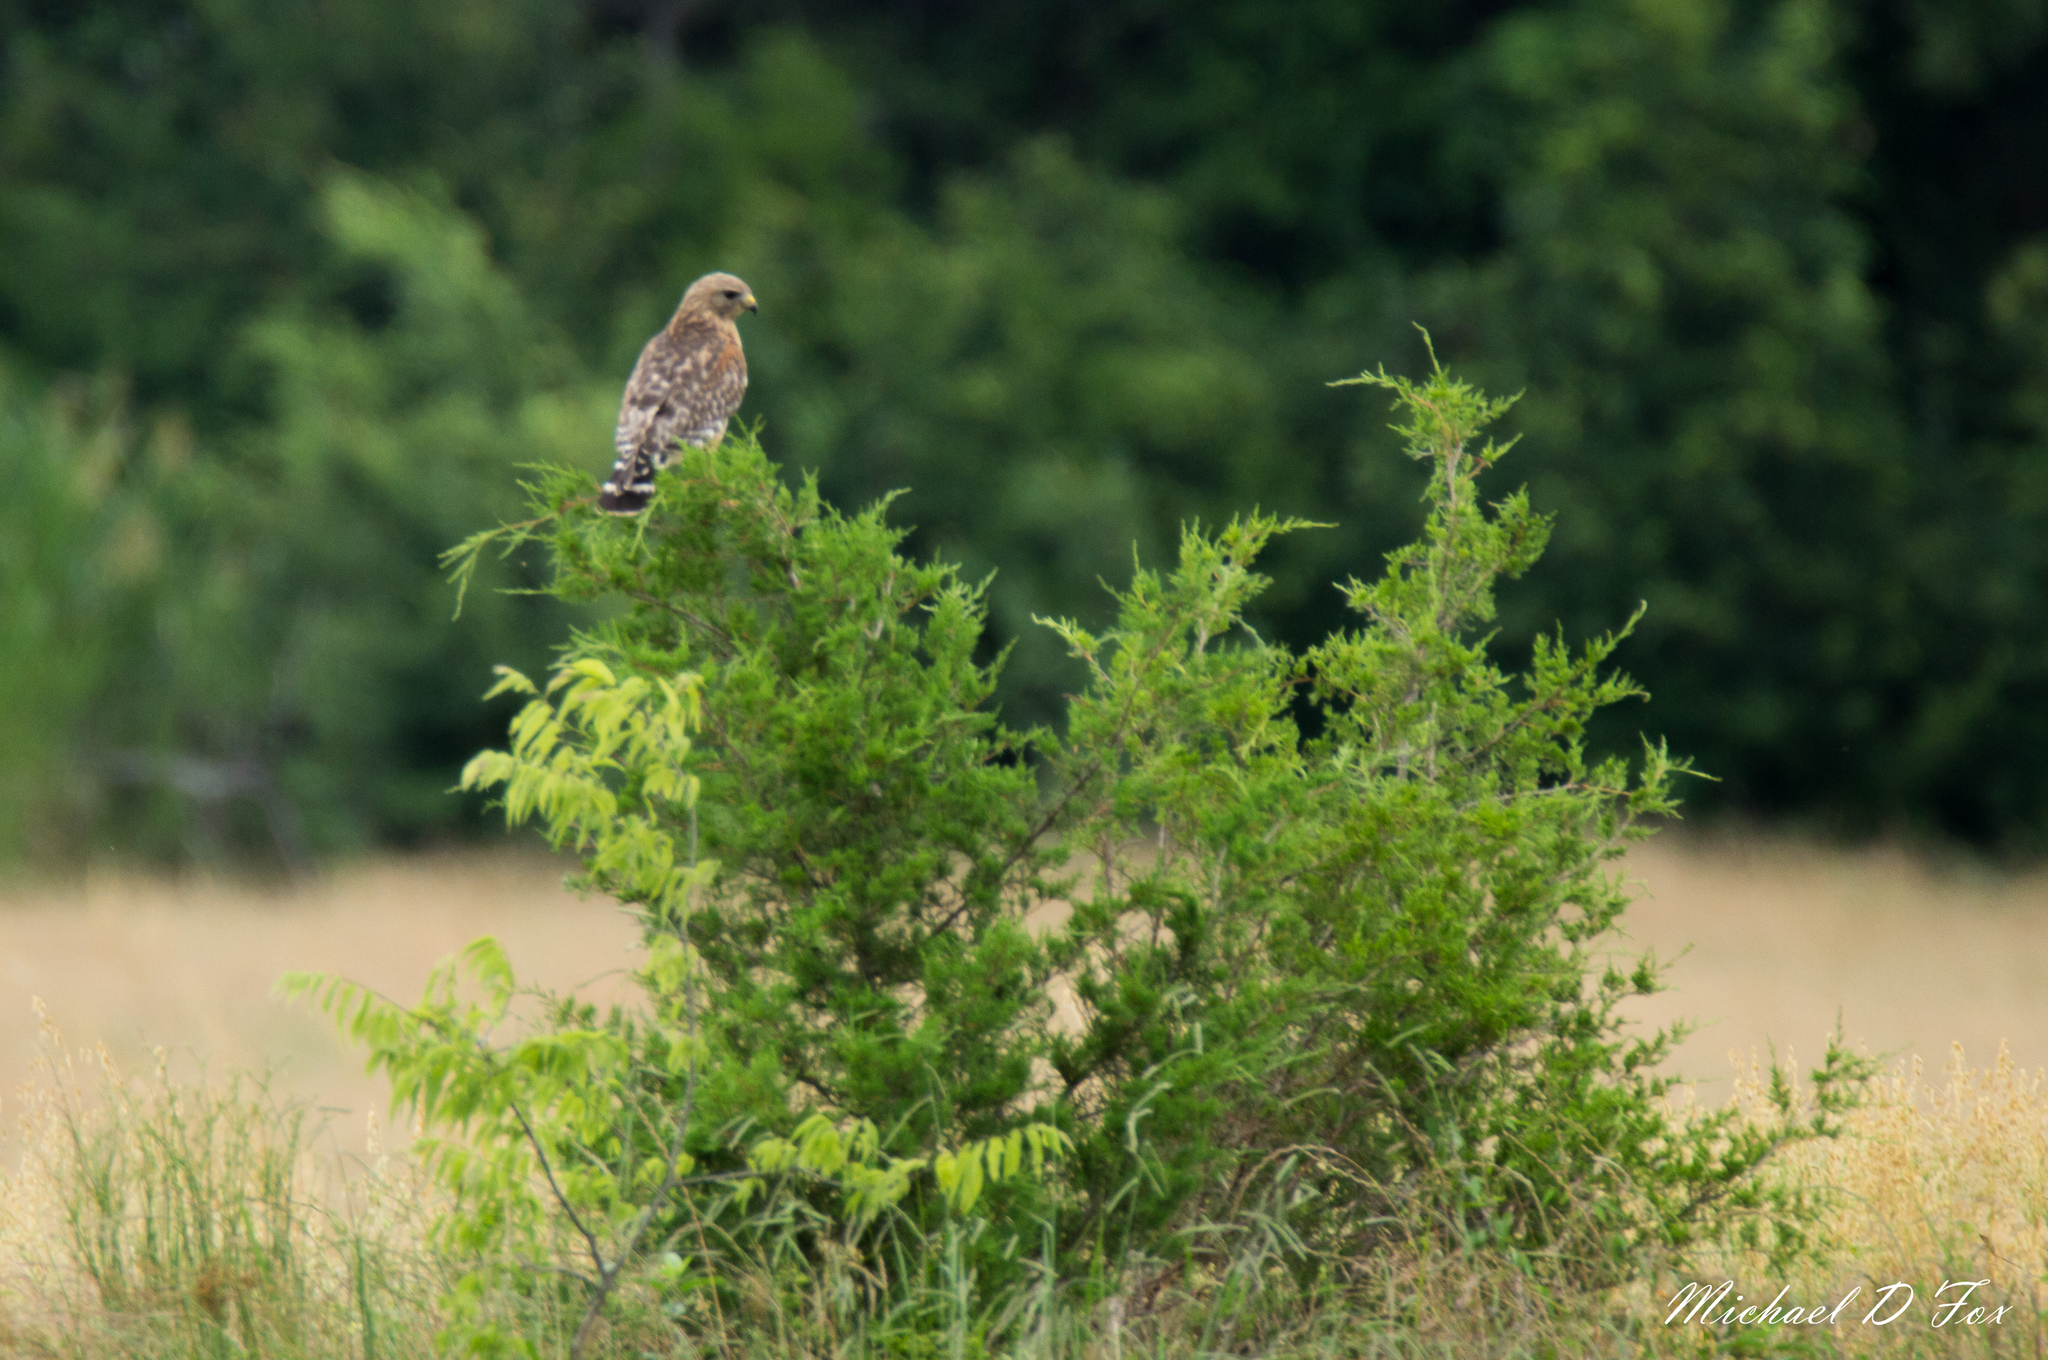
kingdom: Animalia
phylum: Chordata
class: Aves
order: Accipitriformes
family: Accipitridae
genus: Buteo
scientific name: Buteo lineatus
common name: Red-shouldered hawk
